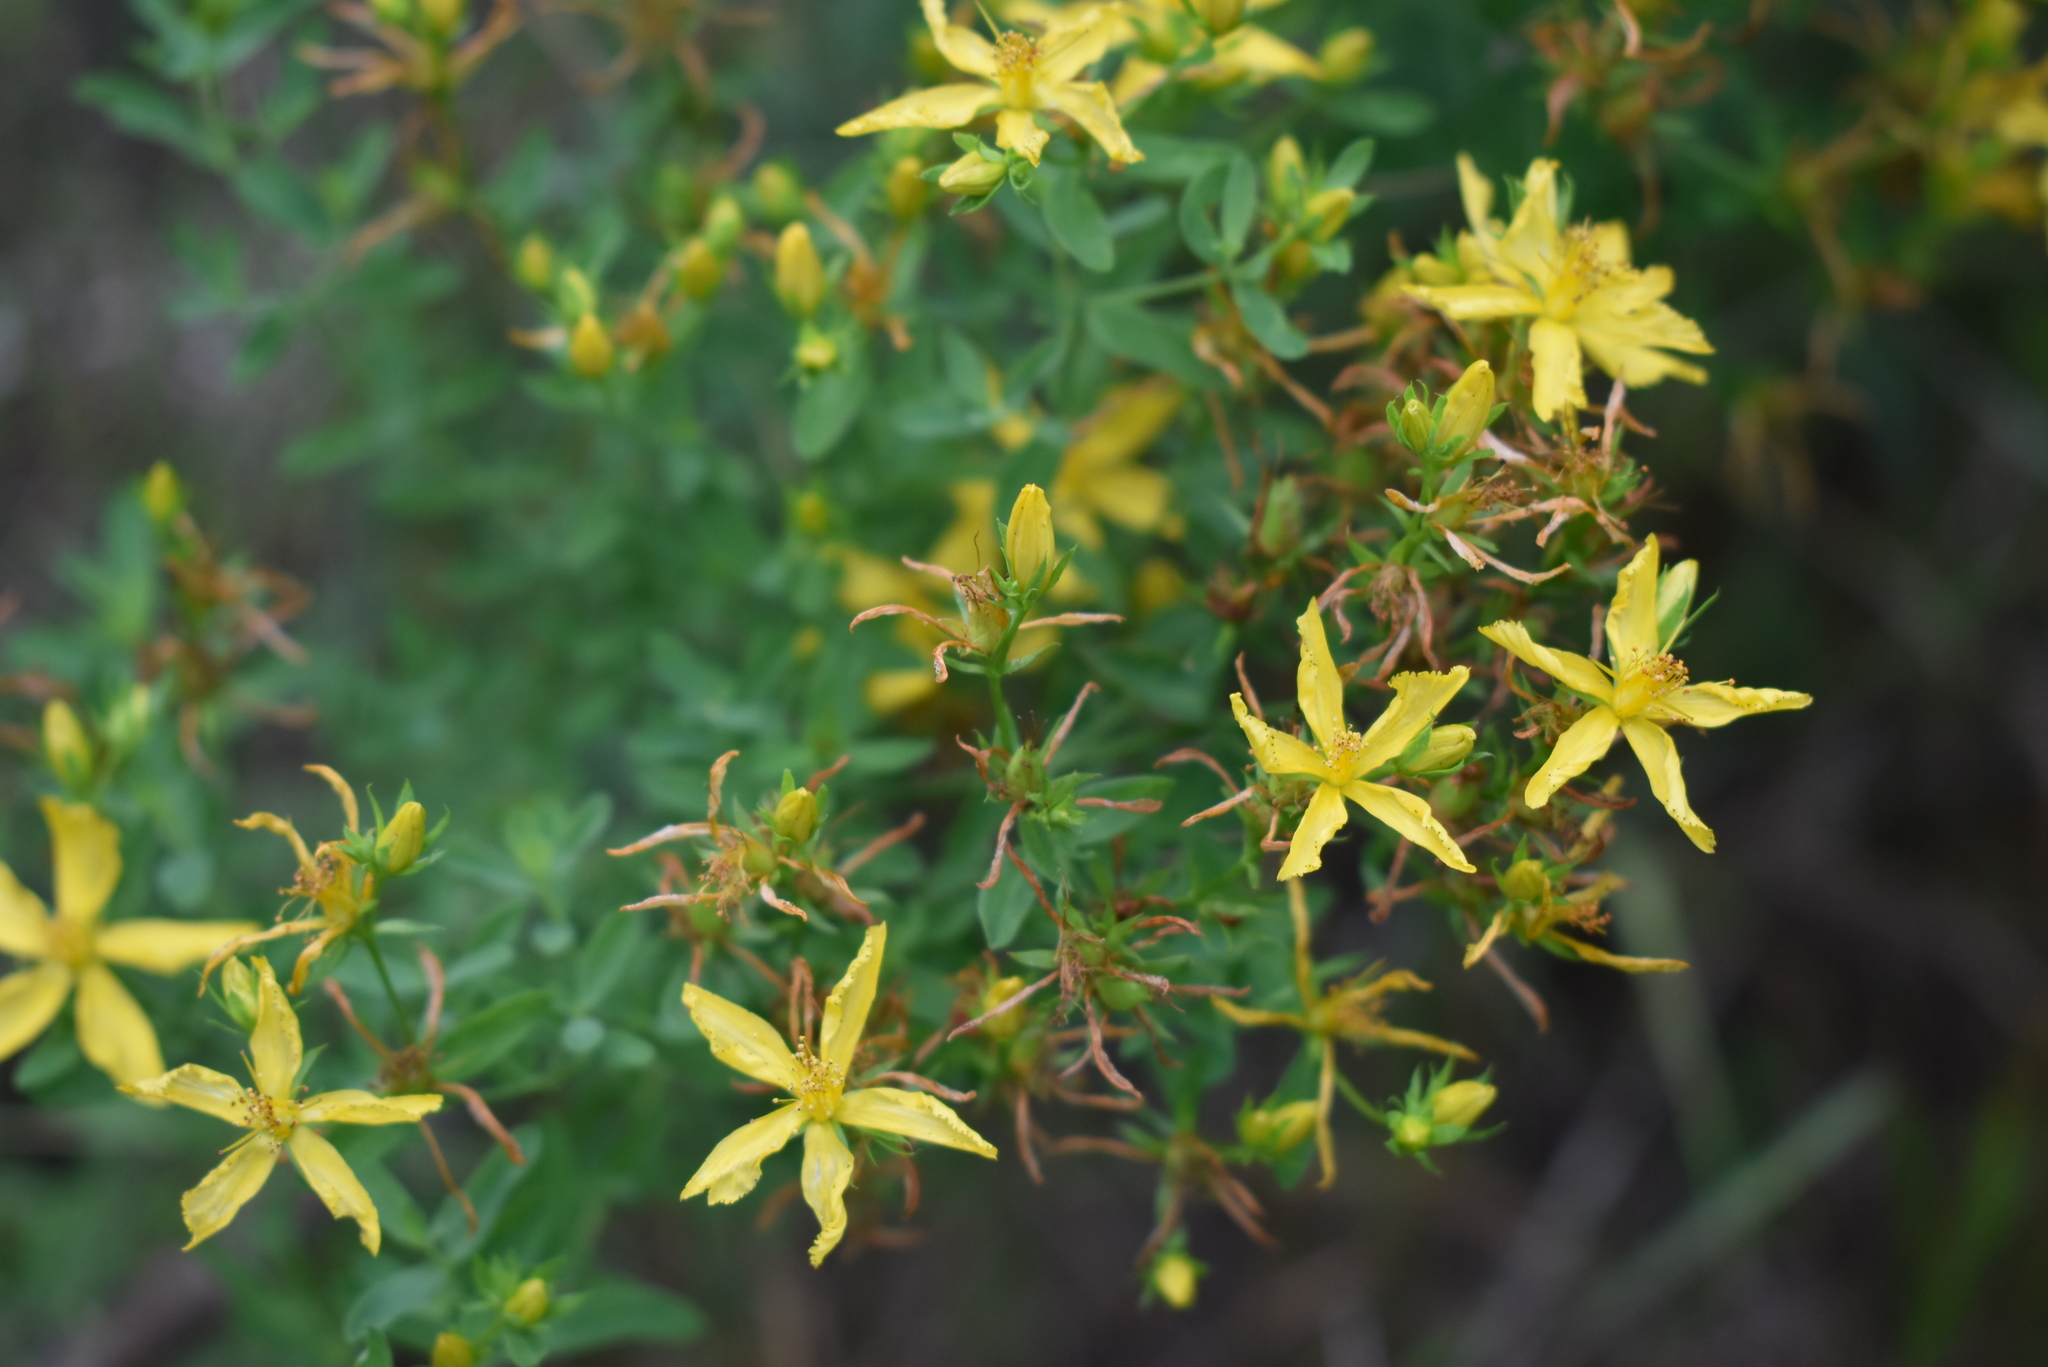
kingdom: Plantae
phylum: Tracheophyta
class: Magnoliopsida
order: Malpighiales
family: Hypericaceae
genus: Hypericum
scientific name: Hypericum perforatum
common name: Common st. johnswort
